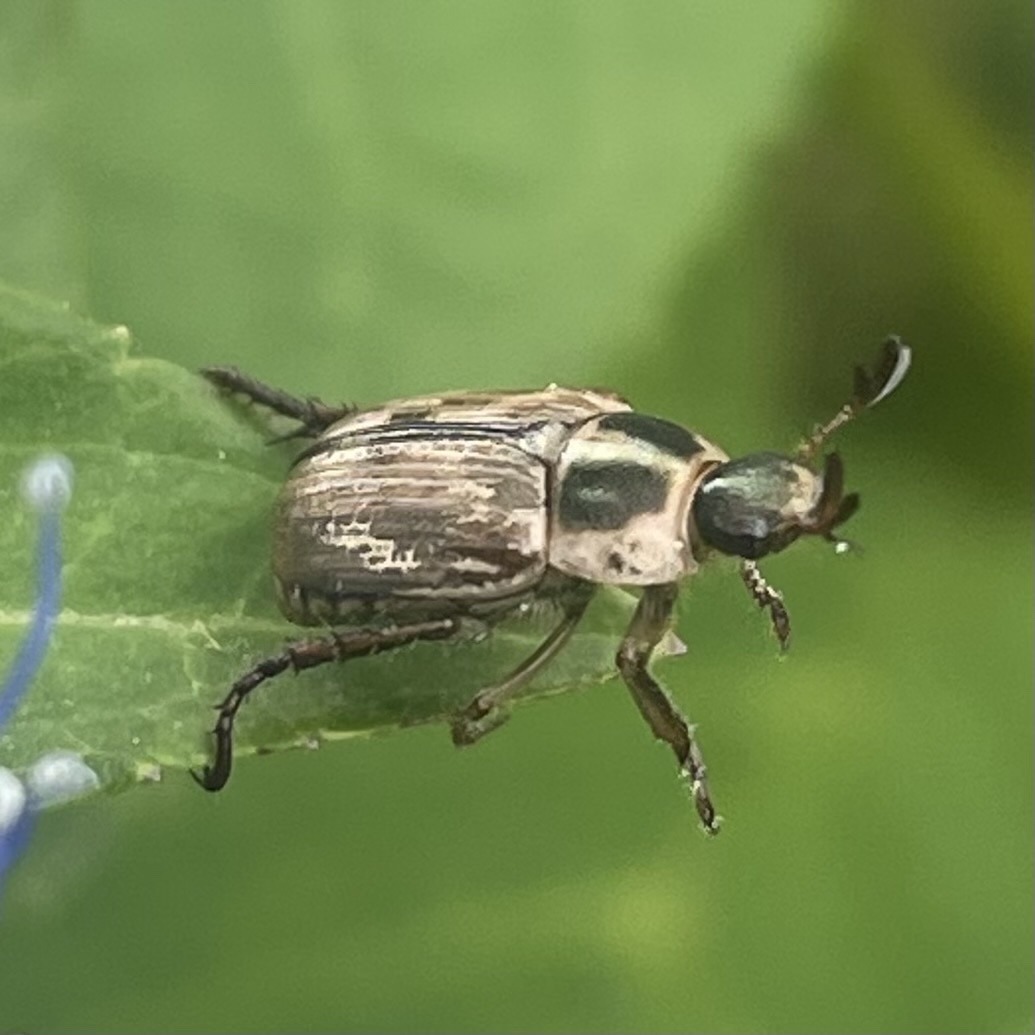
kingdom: Animalia
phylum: Arthropoda
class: Insecta
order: Coleoptera
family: Scarabaeidae
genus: Exomala
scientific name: Exomala orientalis
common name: Oriental beetle
